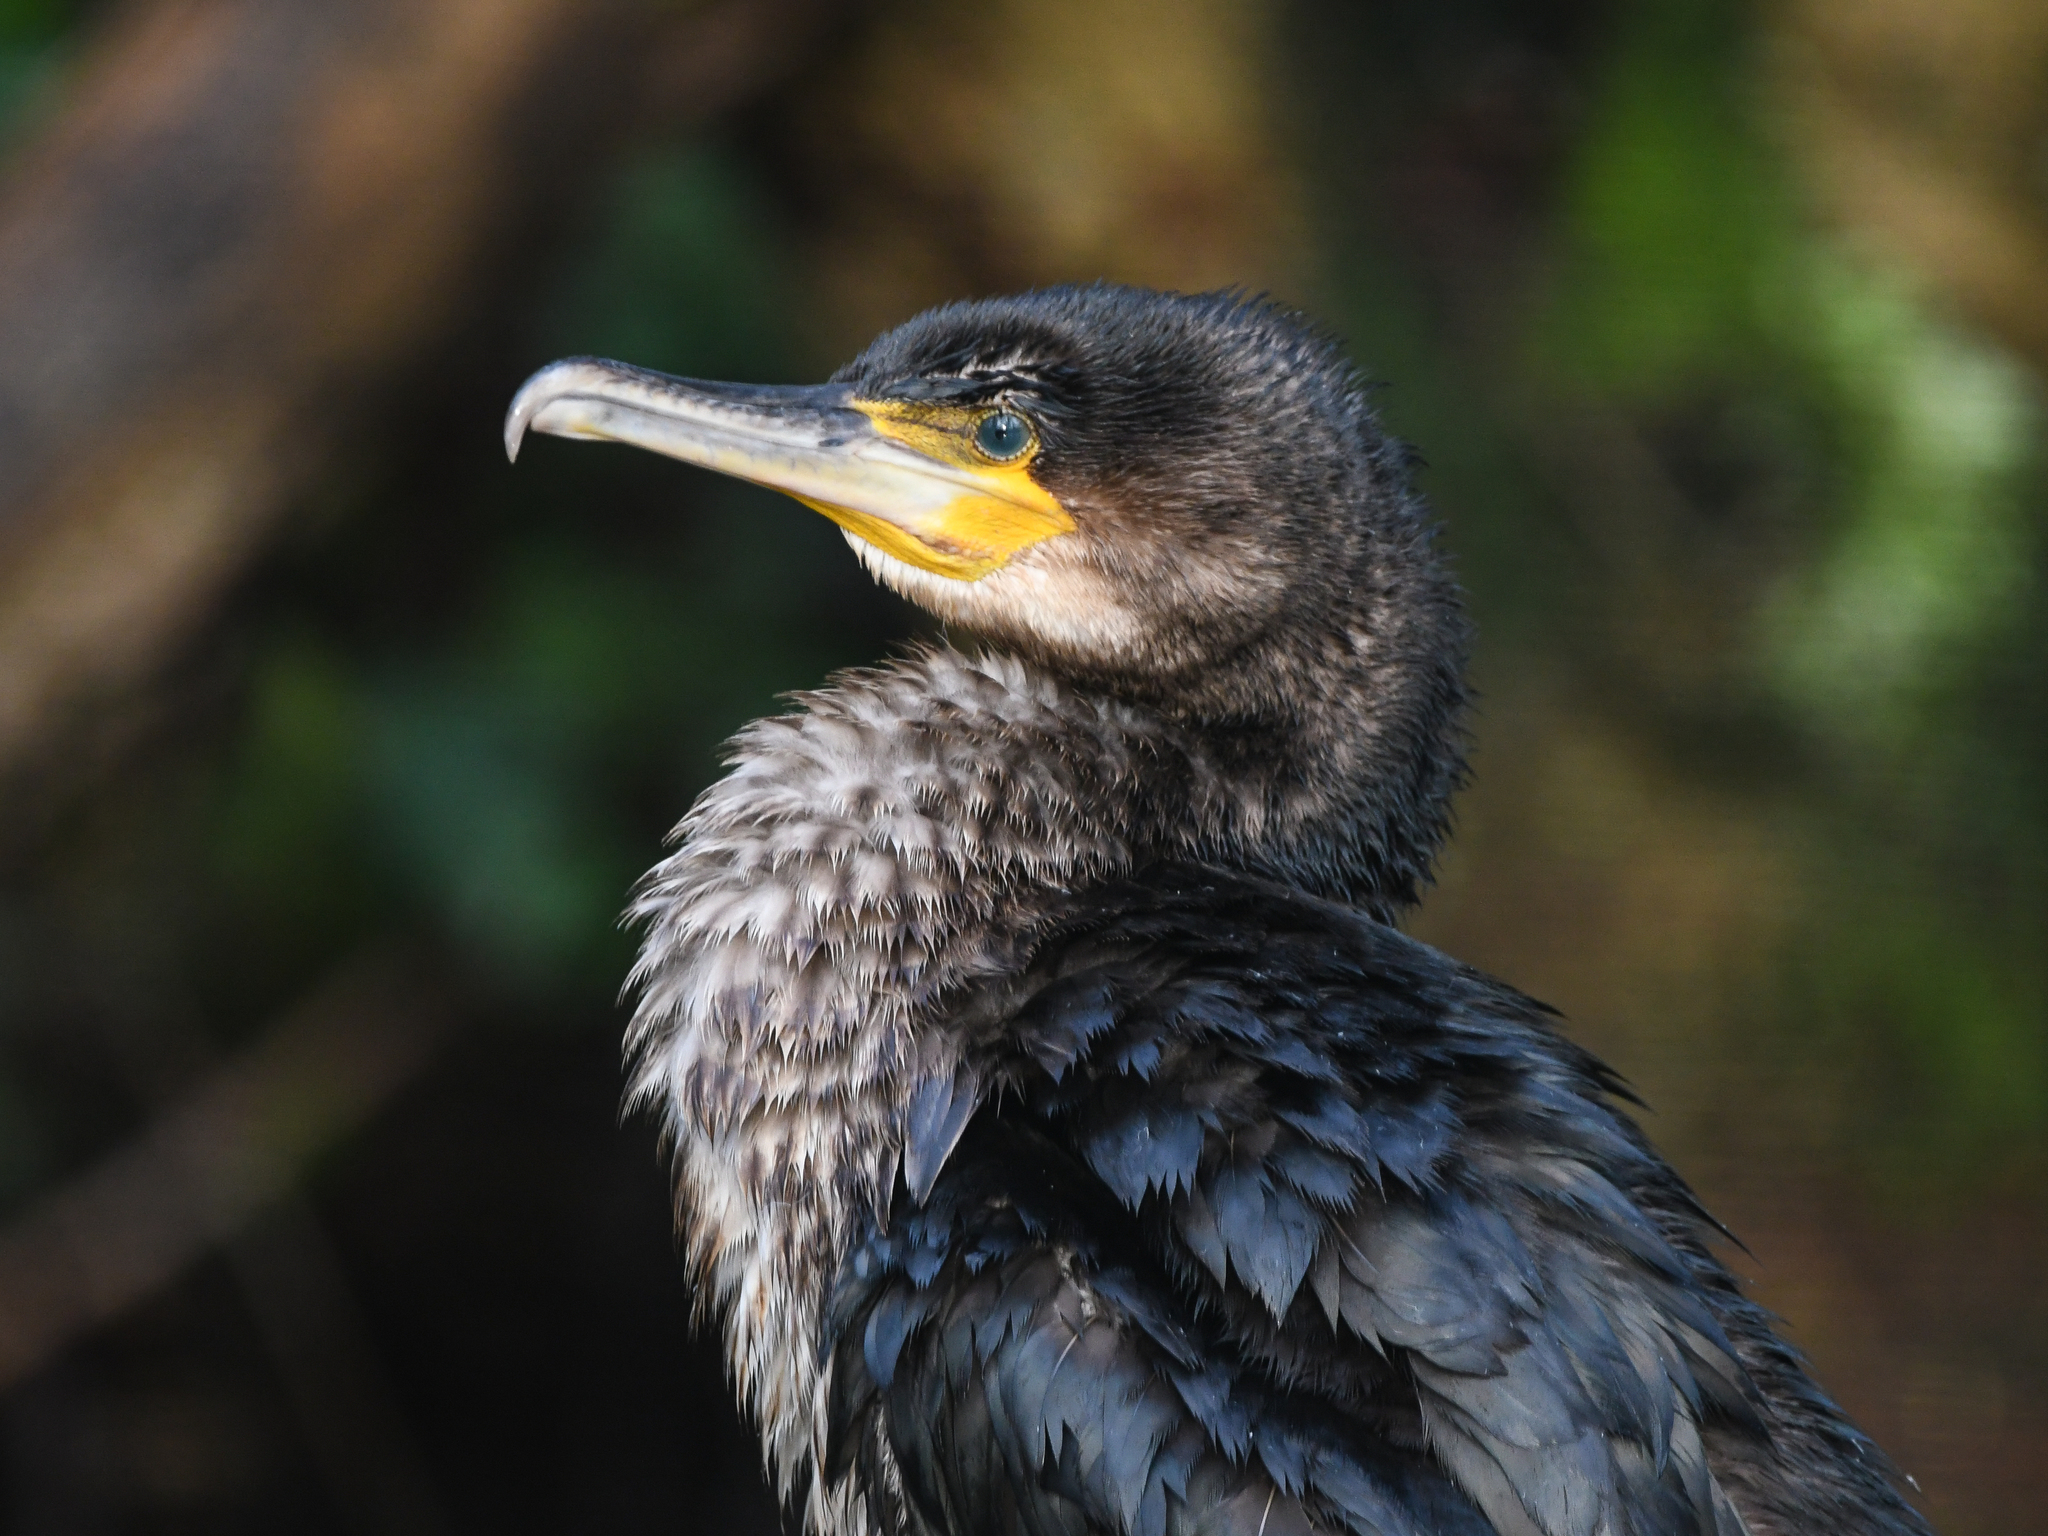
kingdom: Animalia
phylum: Chordata
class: Aves
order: Suliformes
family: Phalacrocoracidae
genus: Phalacrocorax
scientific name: Phalacrocorax carbo
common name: Great cormorant
